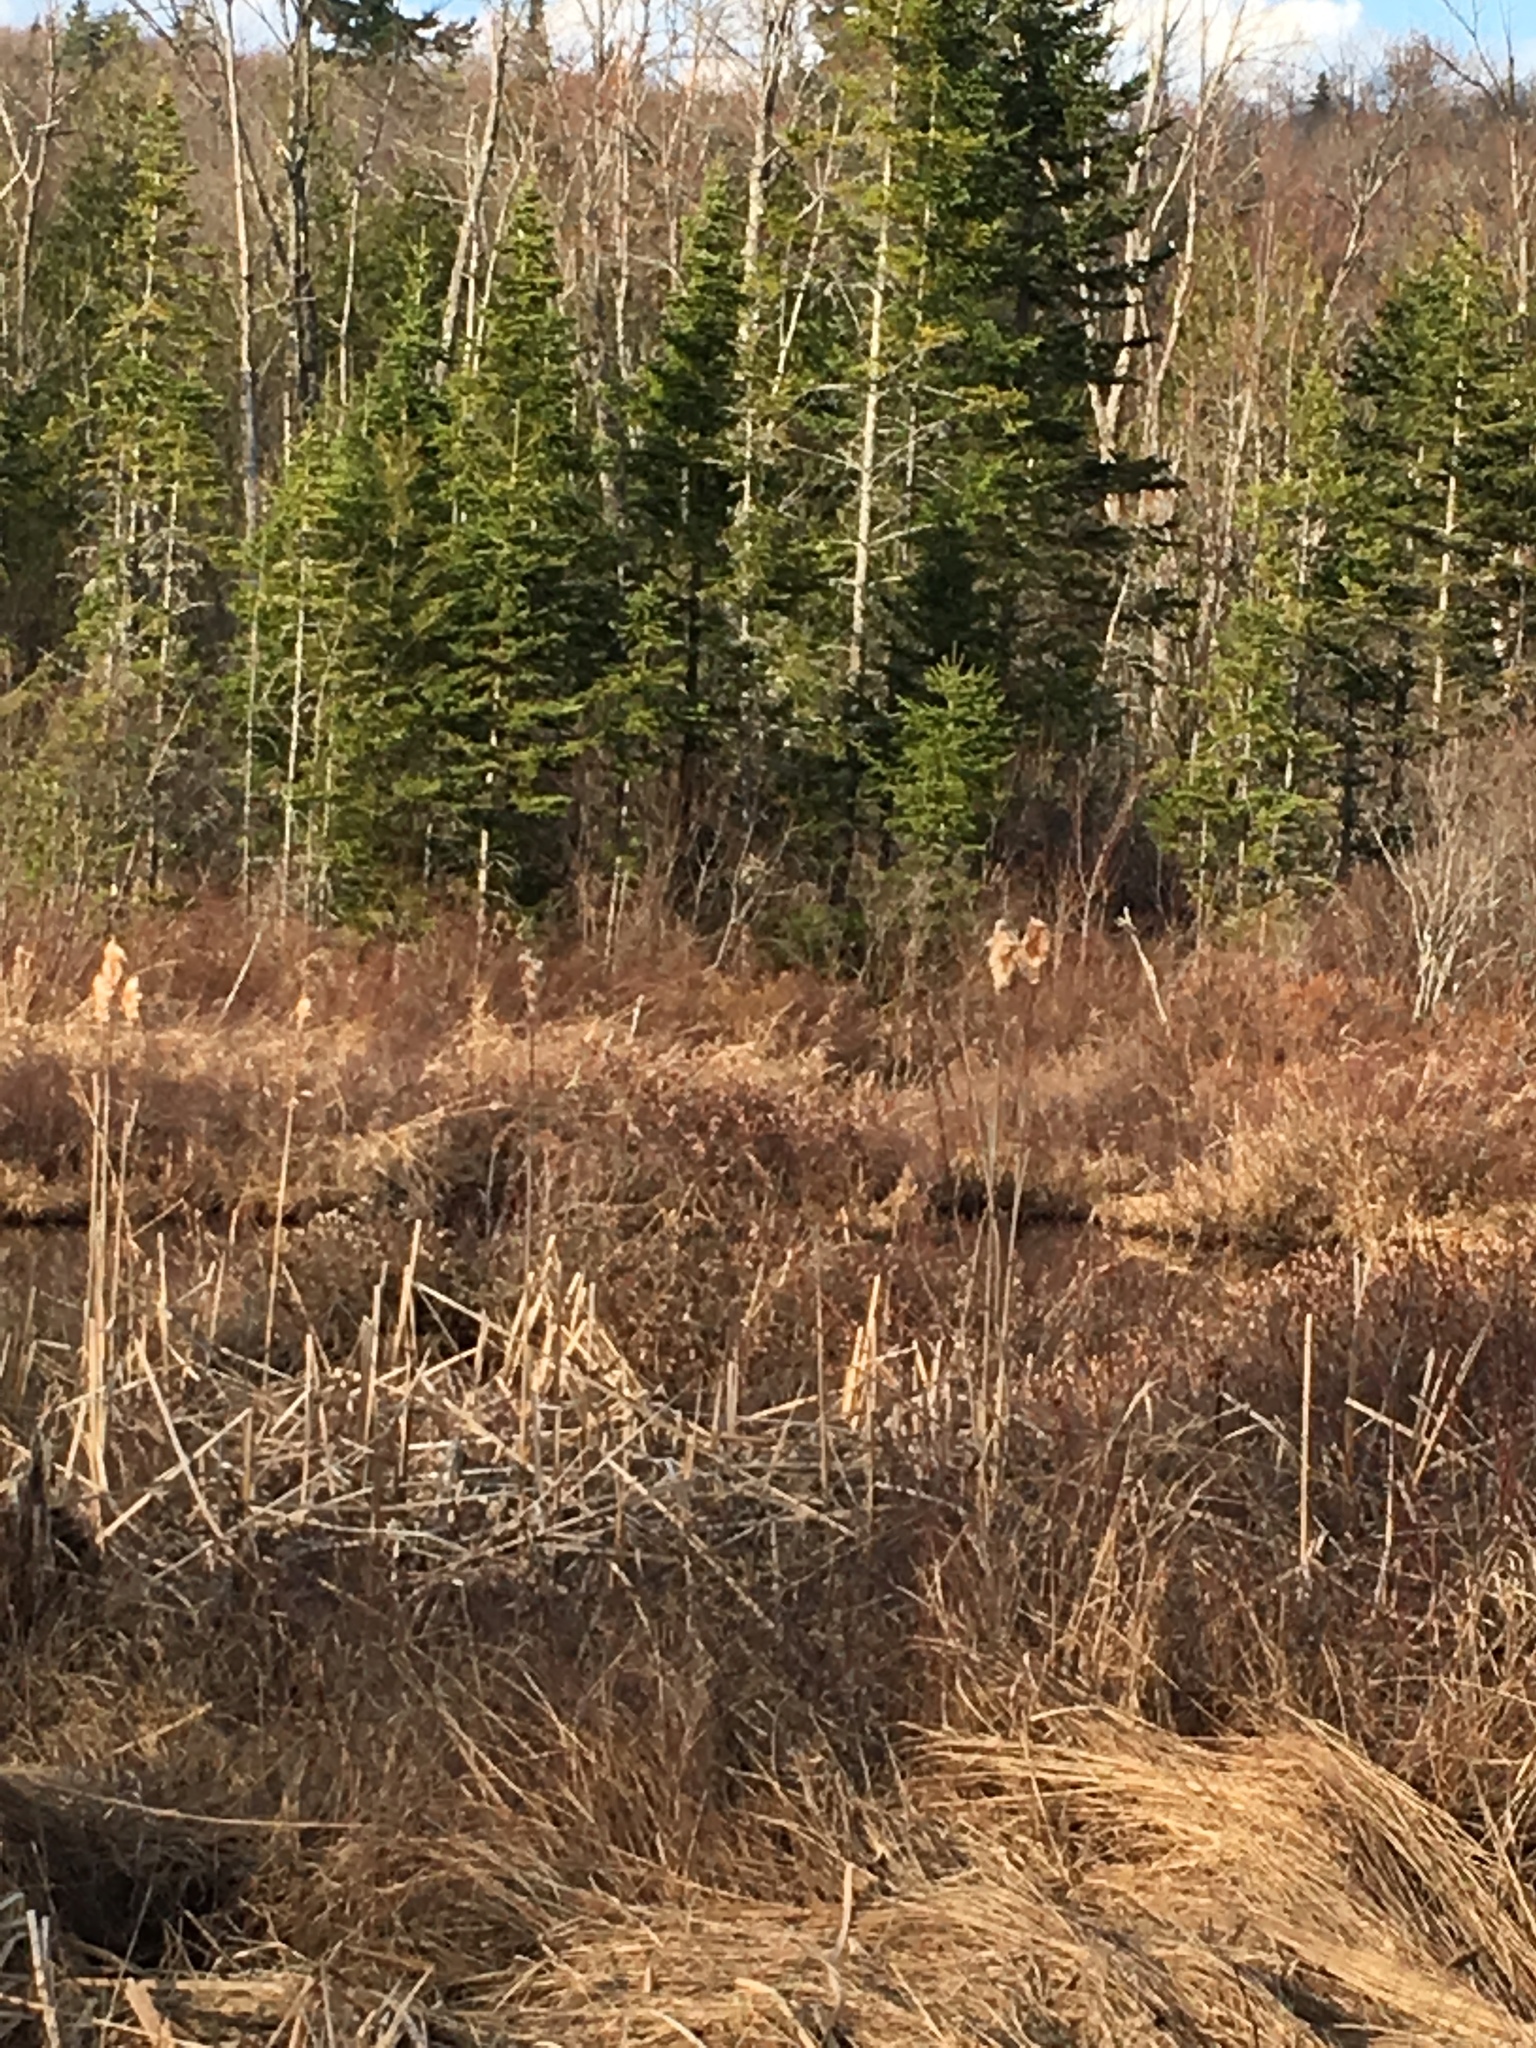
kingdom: Animalia
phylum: Chordata
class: Amphibia
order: Anura
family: Hylidae
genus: Pseudacris
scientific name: Pseudacris crucifer
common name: Spring peeper
